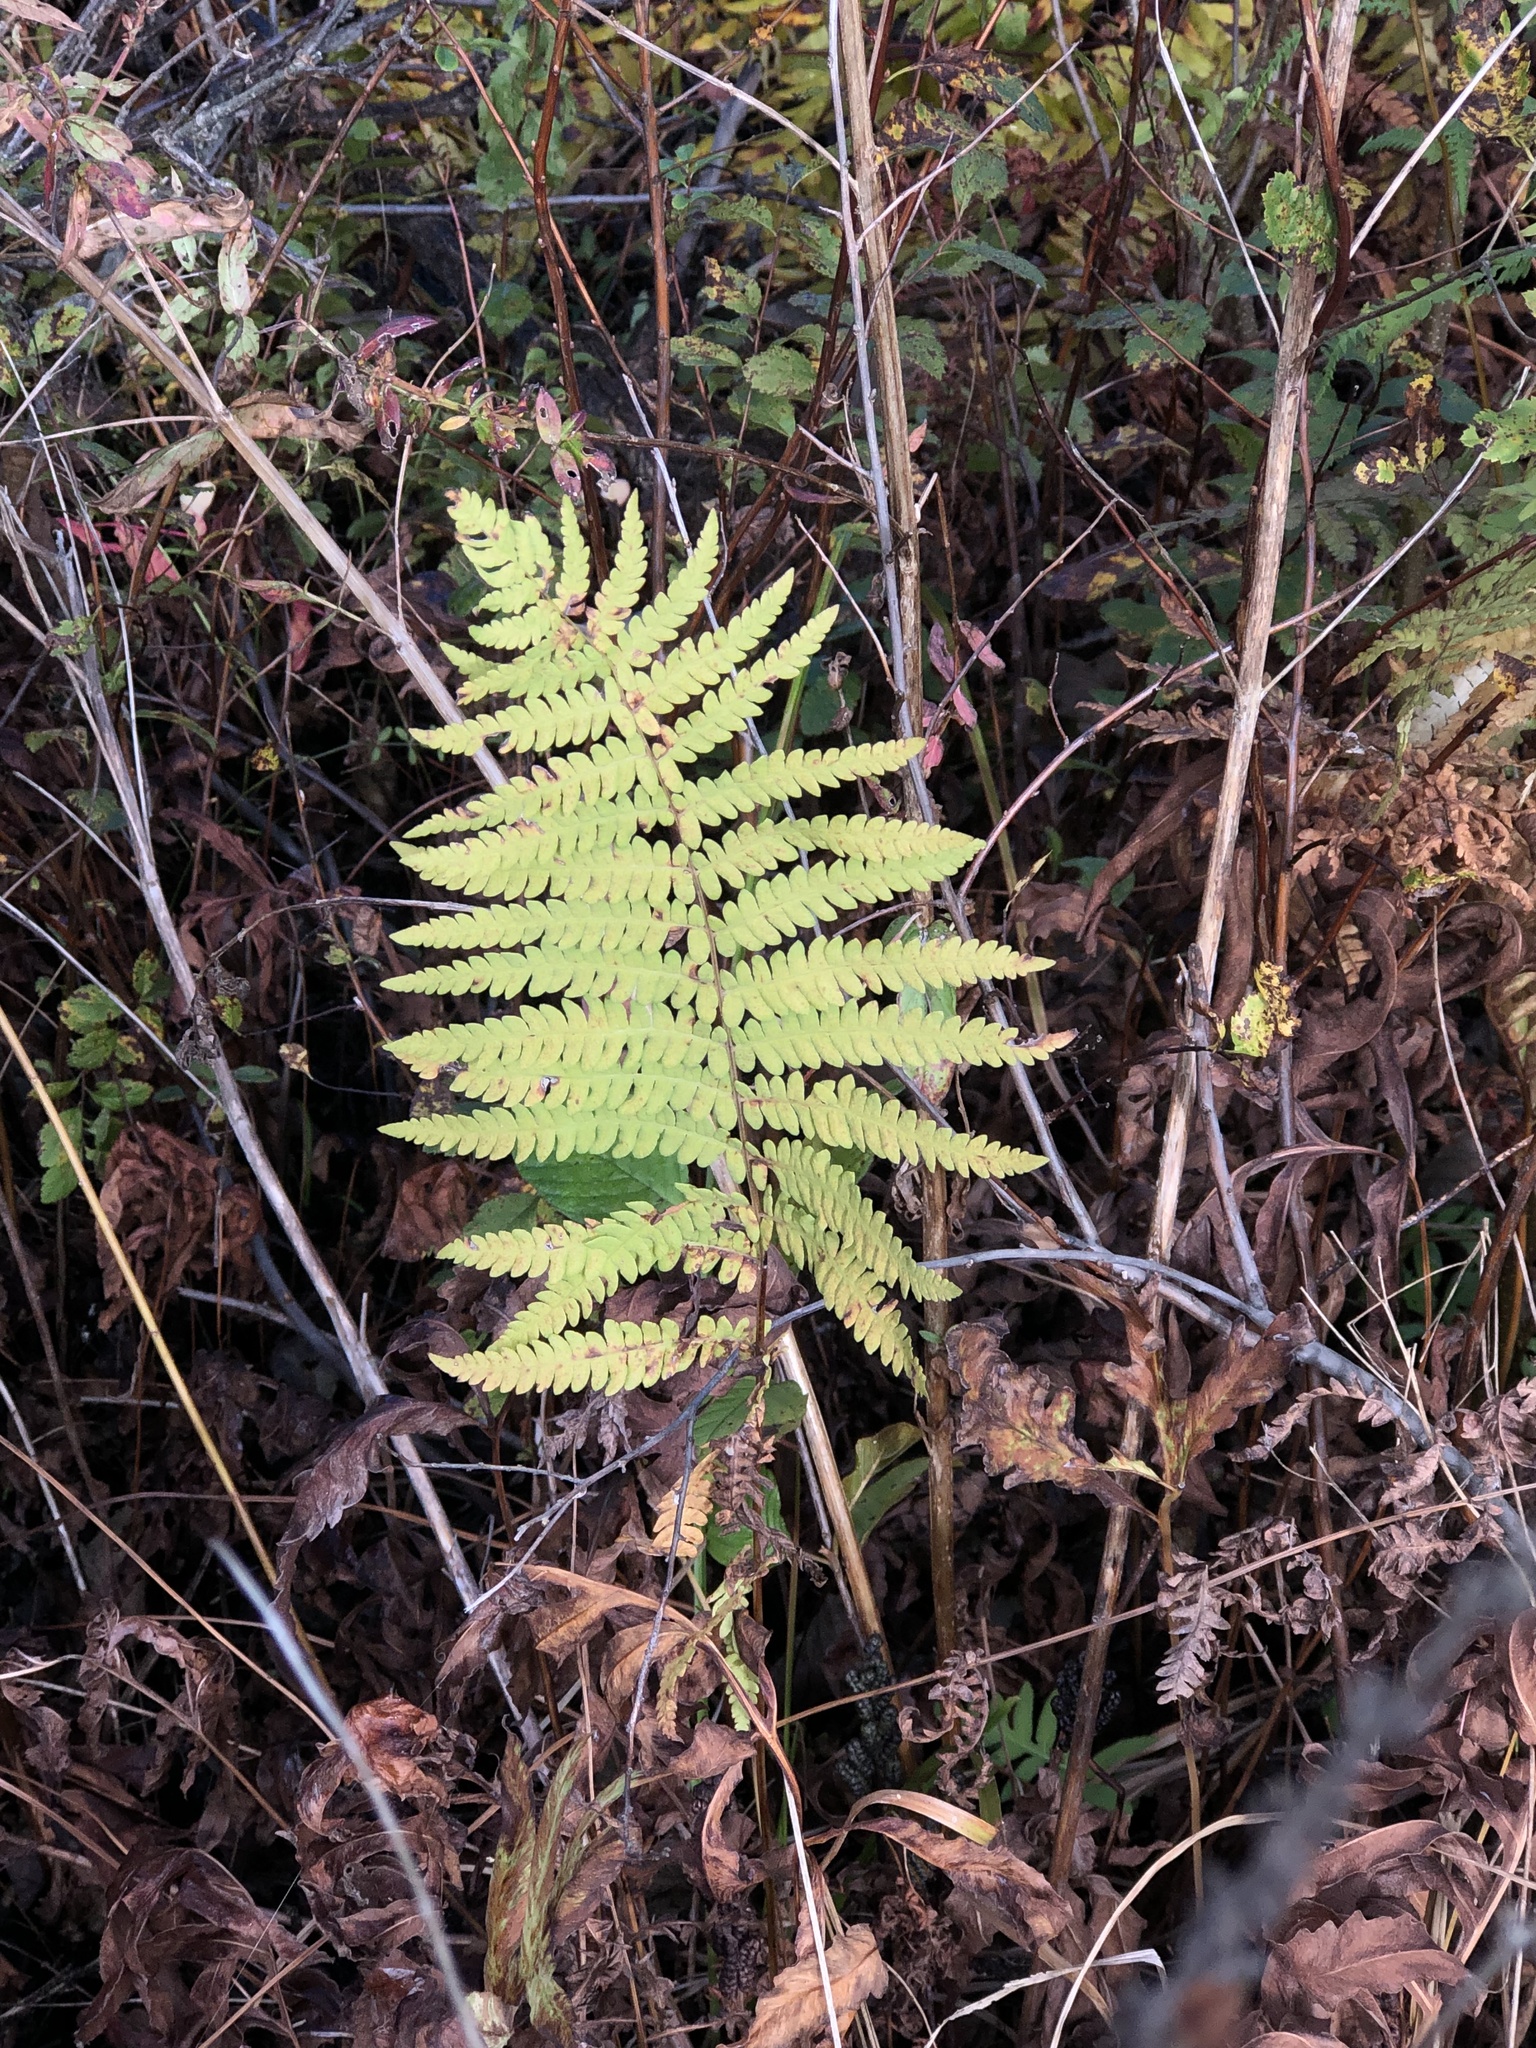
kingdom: Plantae
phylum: Tracheophyta
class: Polypodiopsida
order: Polypodiales
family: Thelypteridaceae
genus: Thelypteris
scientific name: Thelypteris palustris
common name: Marsh fern
